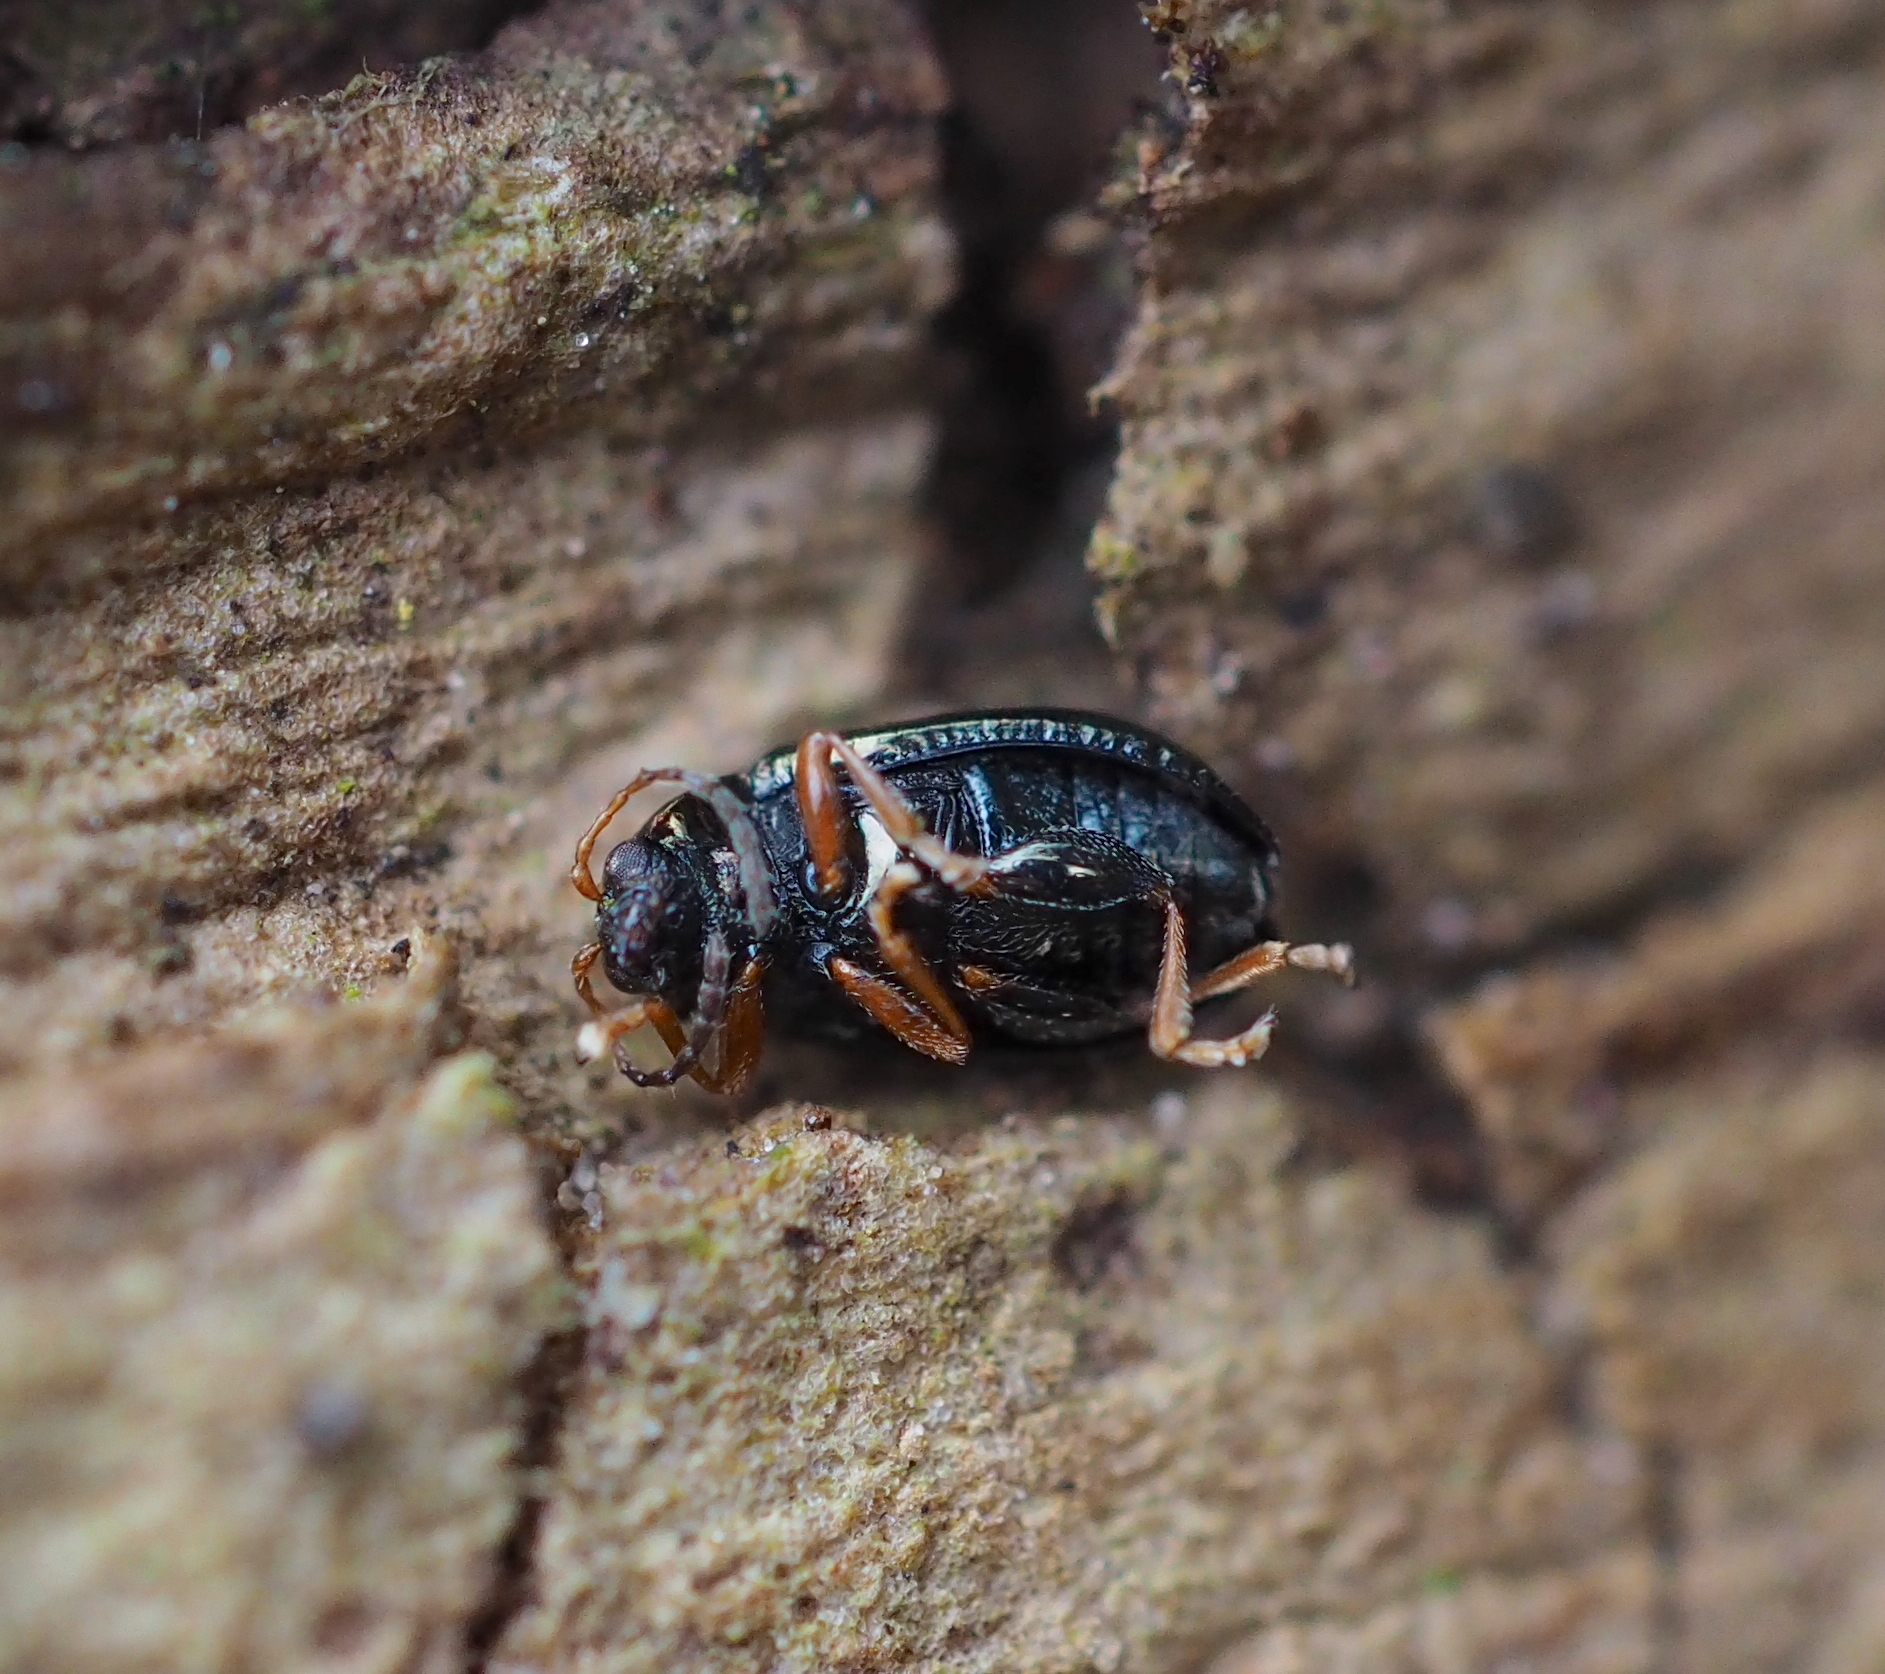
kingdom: Animalia
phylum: Arthropoda
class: Insecta
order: Coleoptera
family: Chrysomelidae
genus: Crepidodera
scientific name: Crepidodera aurata
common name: Willow flea beetle
